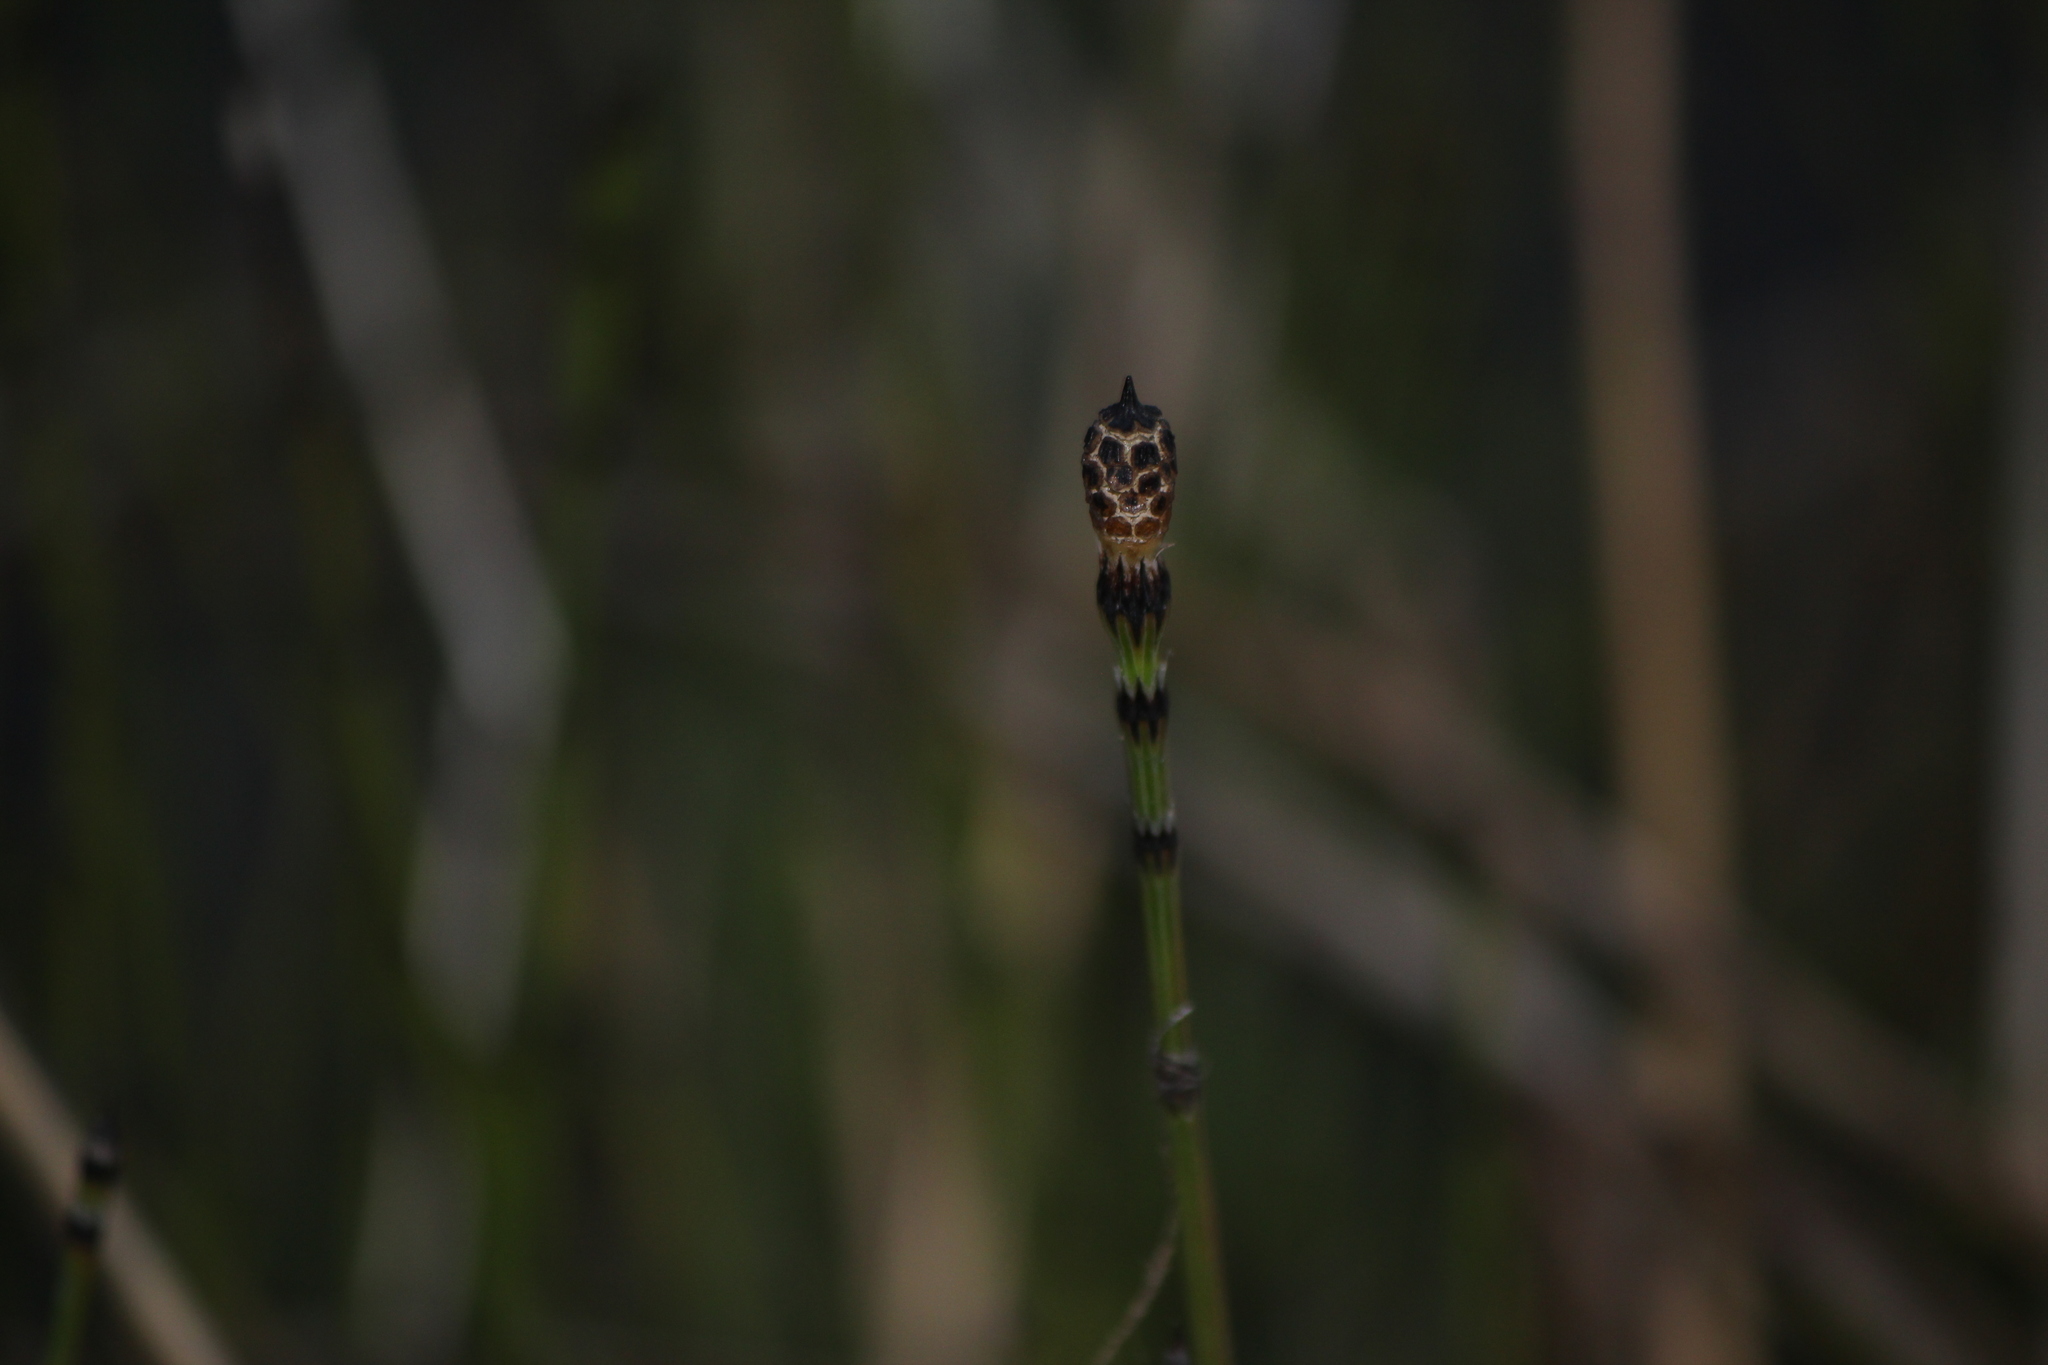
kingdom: Plantae
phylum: Tracheophyta
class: Polypodiopsida
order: Equisetales
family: Equisetaceae
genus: Equisetum
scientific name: Equisetum variegatum
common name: Variegated horsetail
